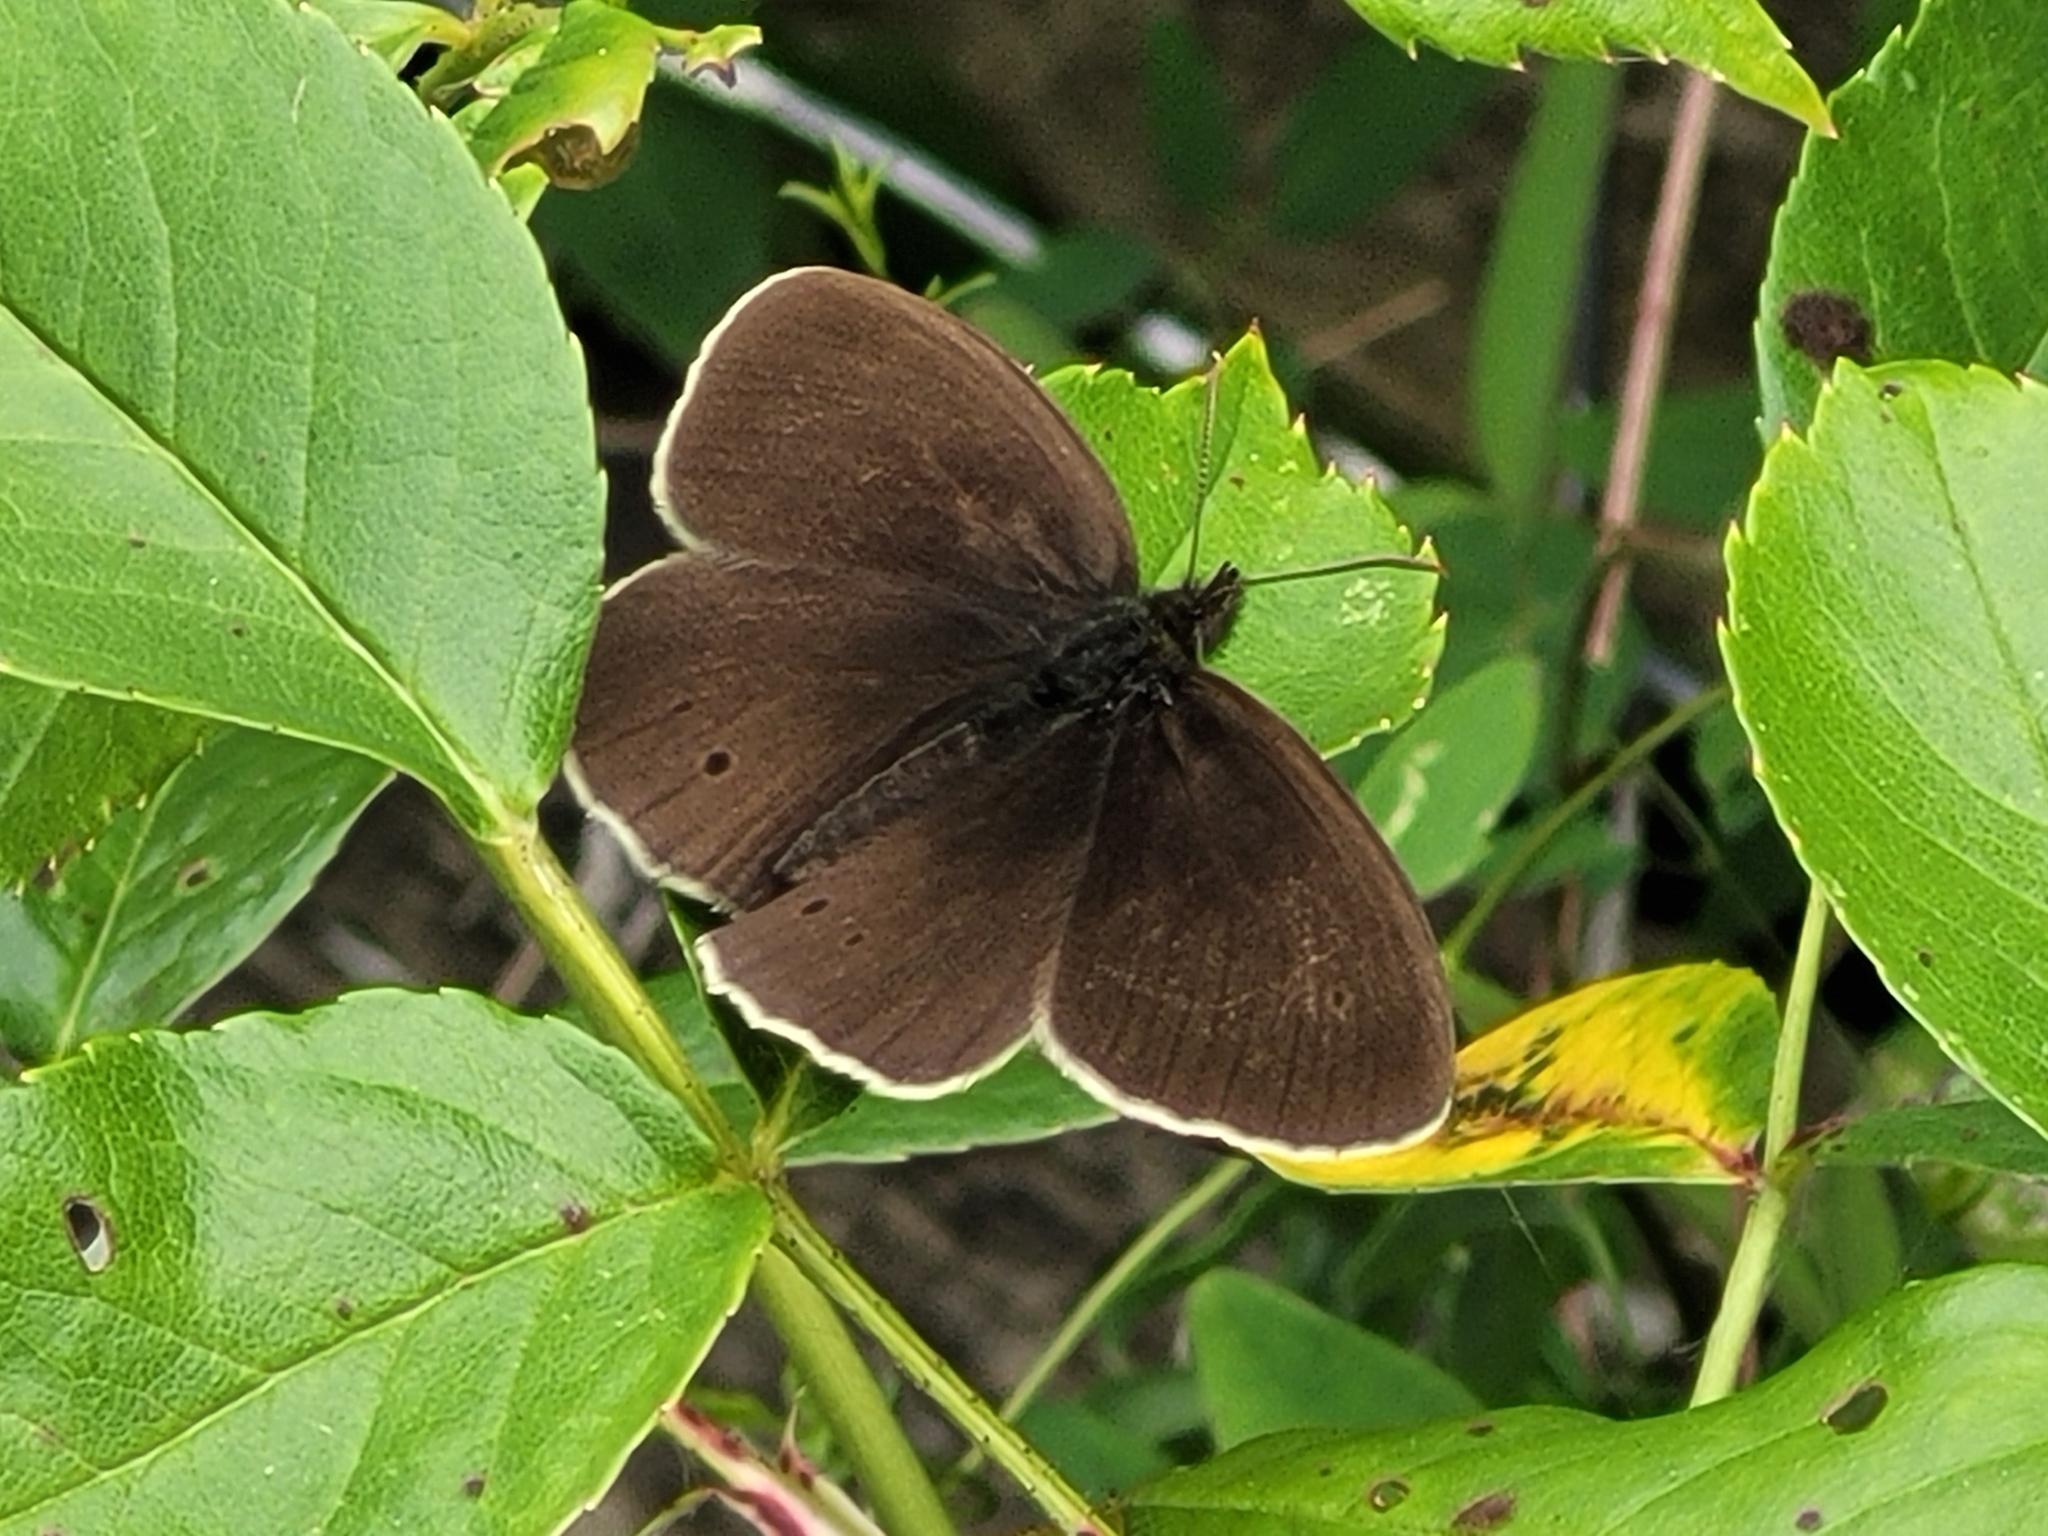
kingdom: Animalia
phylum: Arthropoda
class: Insecta
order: Lepidoptera
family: Nymphalidae
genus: Aphantopus
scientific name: Aphantopus hyperantus
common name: Ringlet
